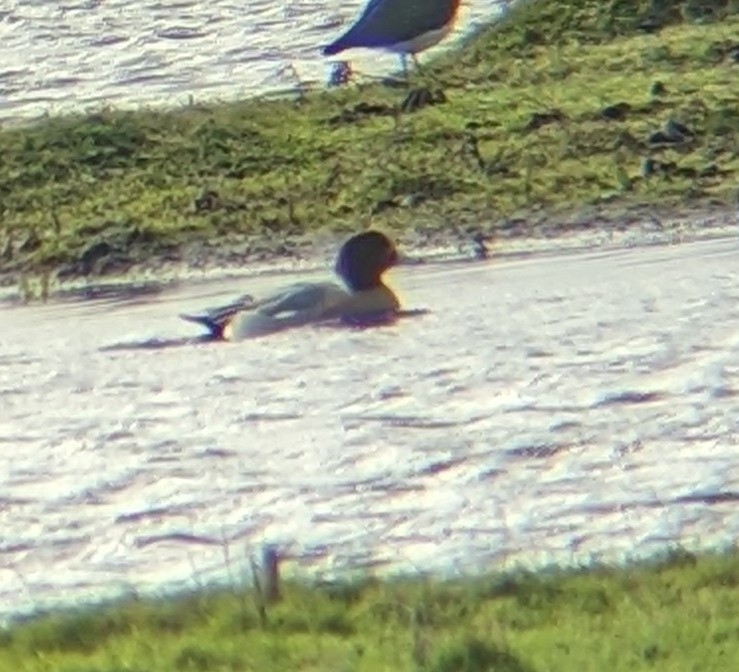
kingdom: Animalia
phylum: Chordata
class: Aves
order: Anseriformes
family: Anatidae
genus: Mareca
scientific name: Mareca penelope
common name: Eurasian wigeon
